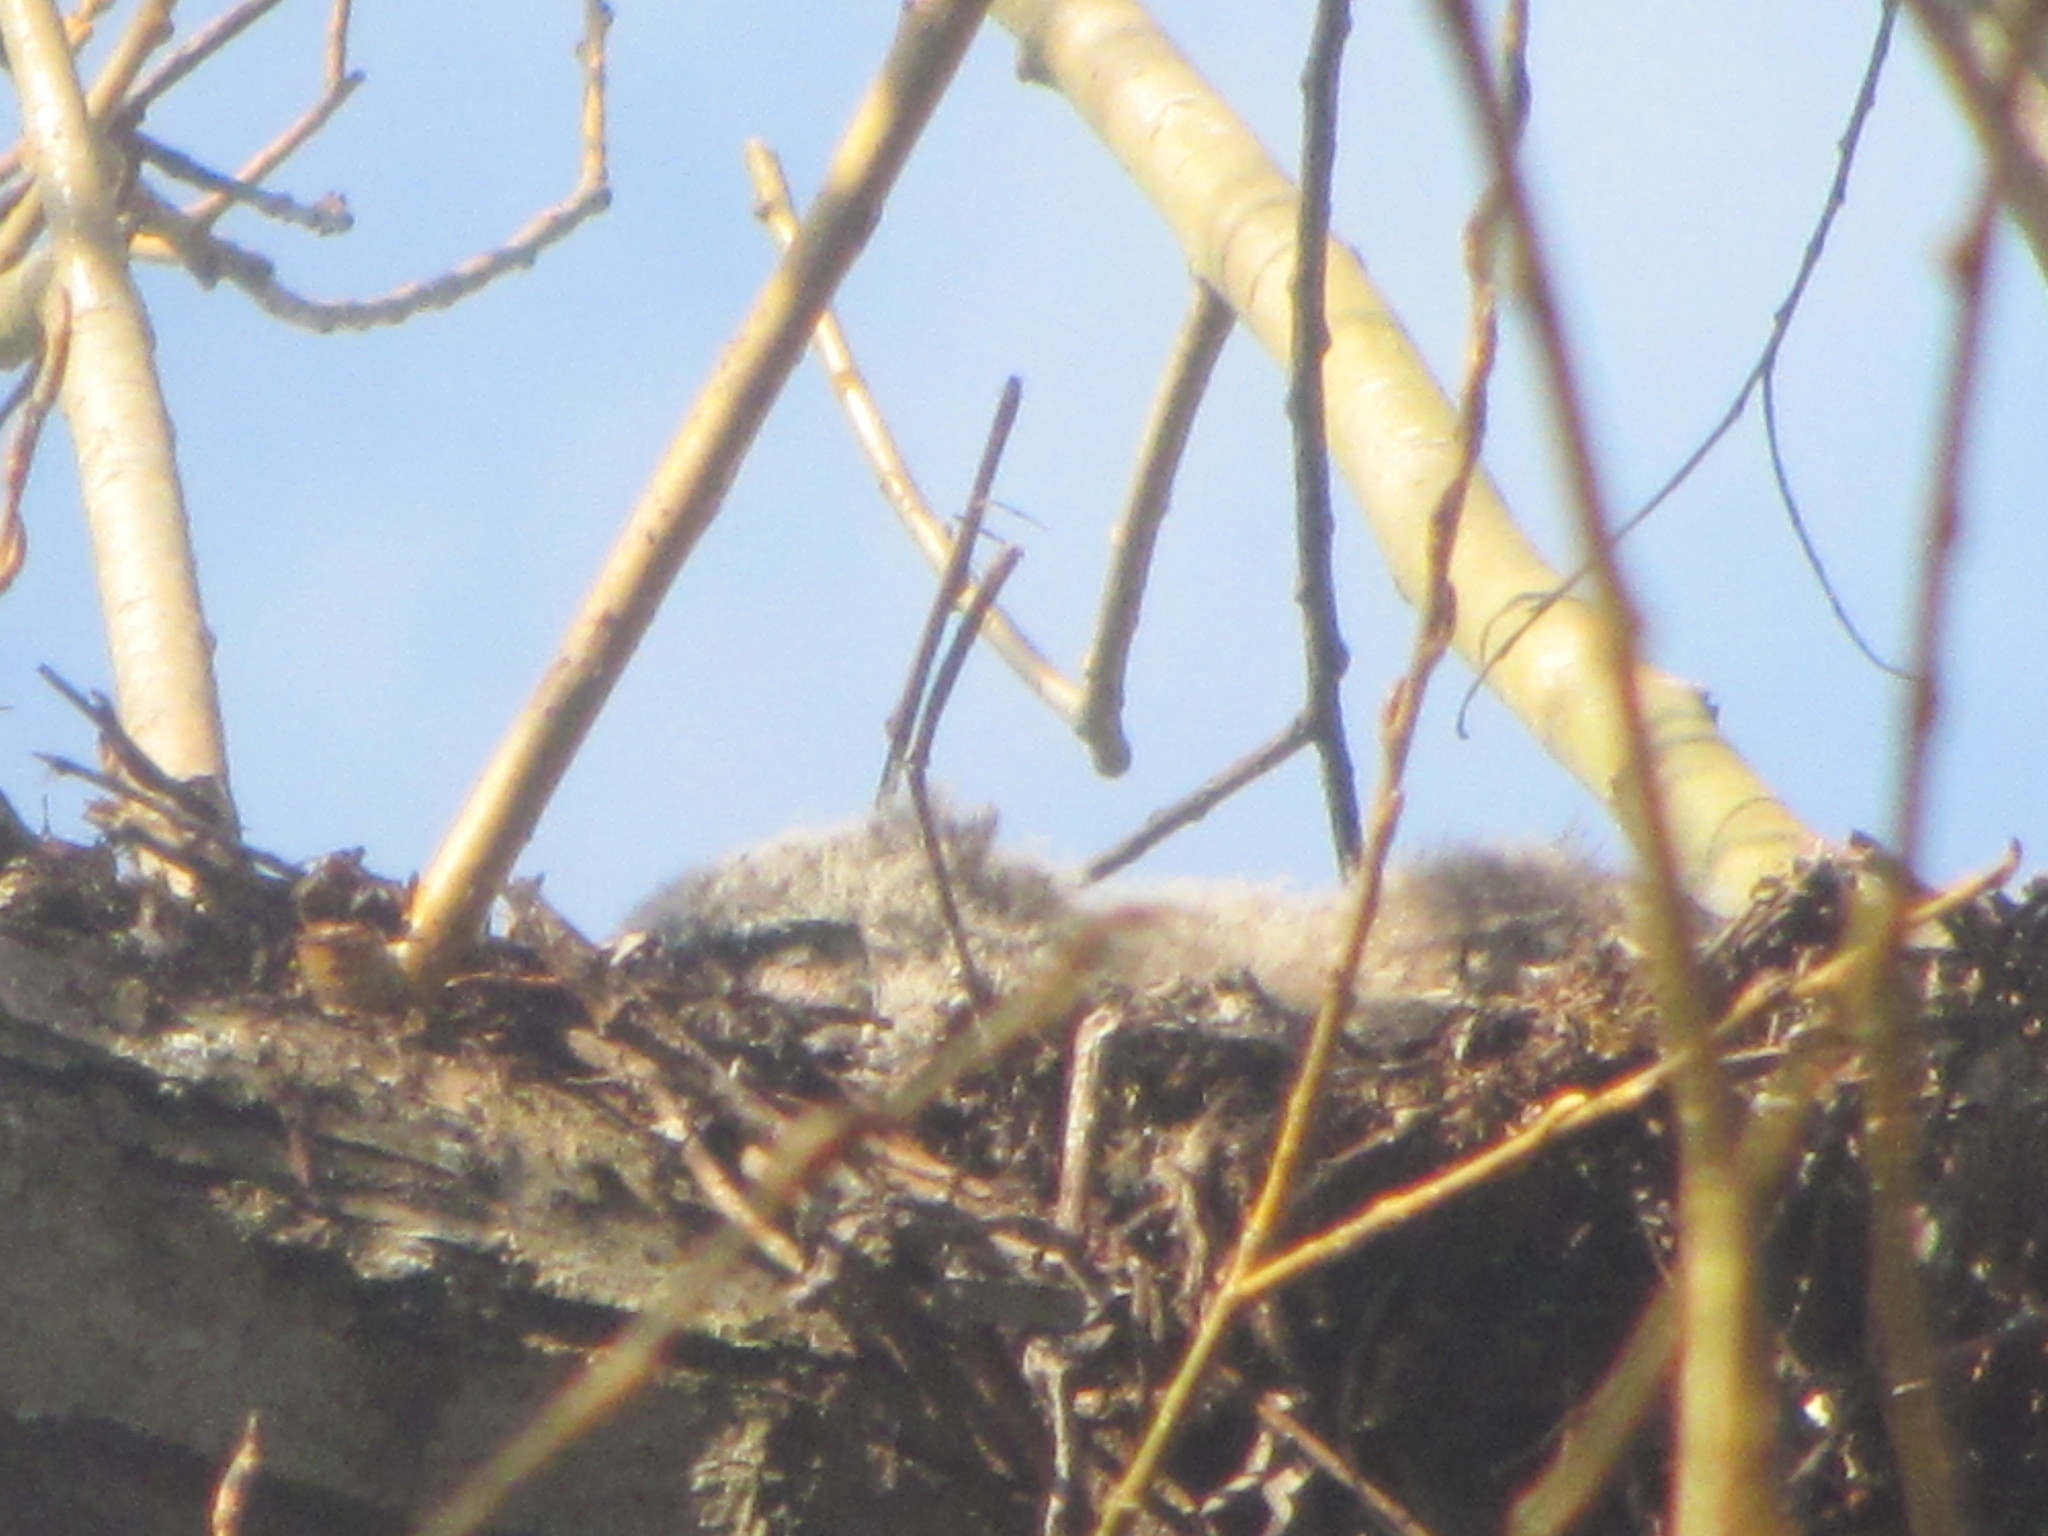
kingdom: Animalia
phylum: Chordata
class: Aves
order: Strigiformes
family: Strigidae
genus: Bubo
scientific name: Bubo virginianus
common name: Great horned owl
